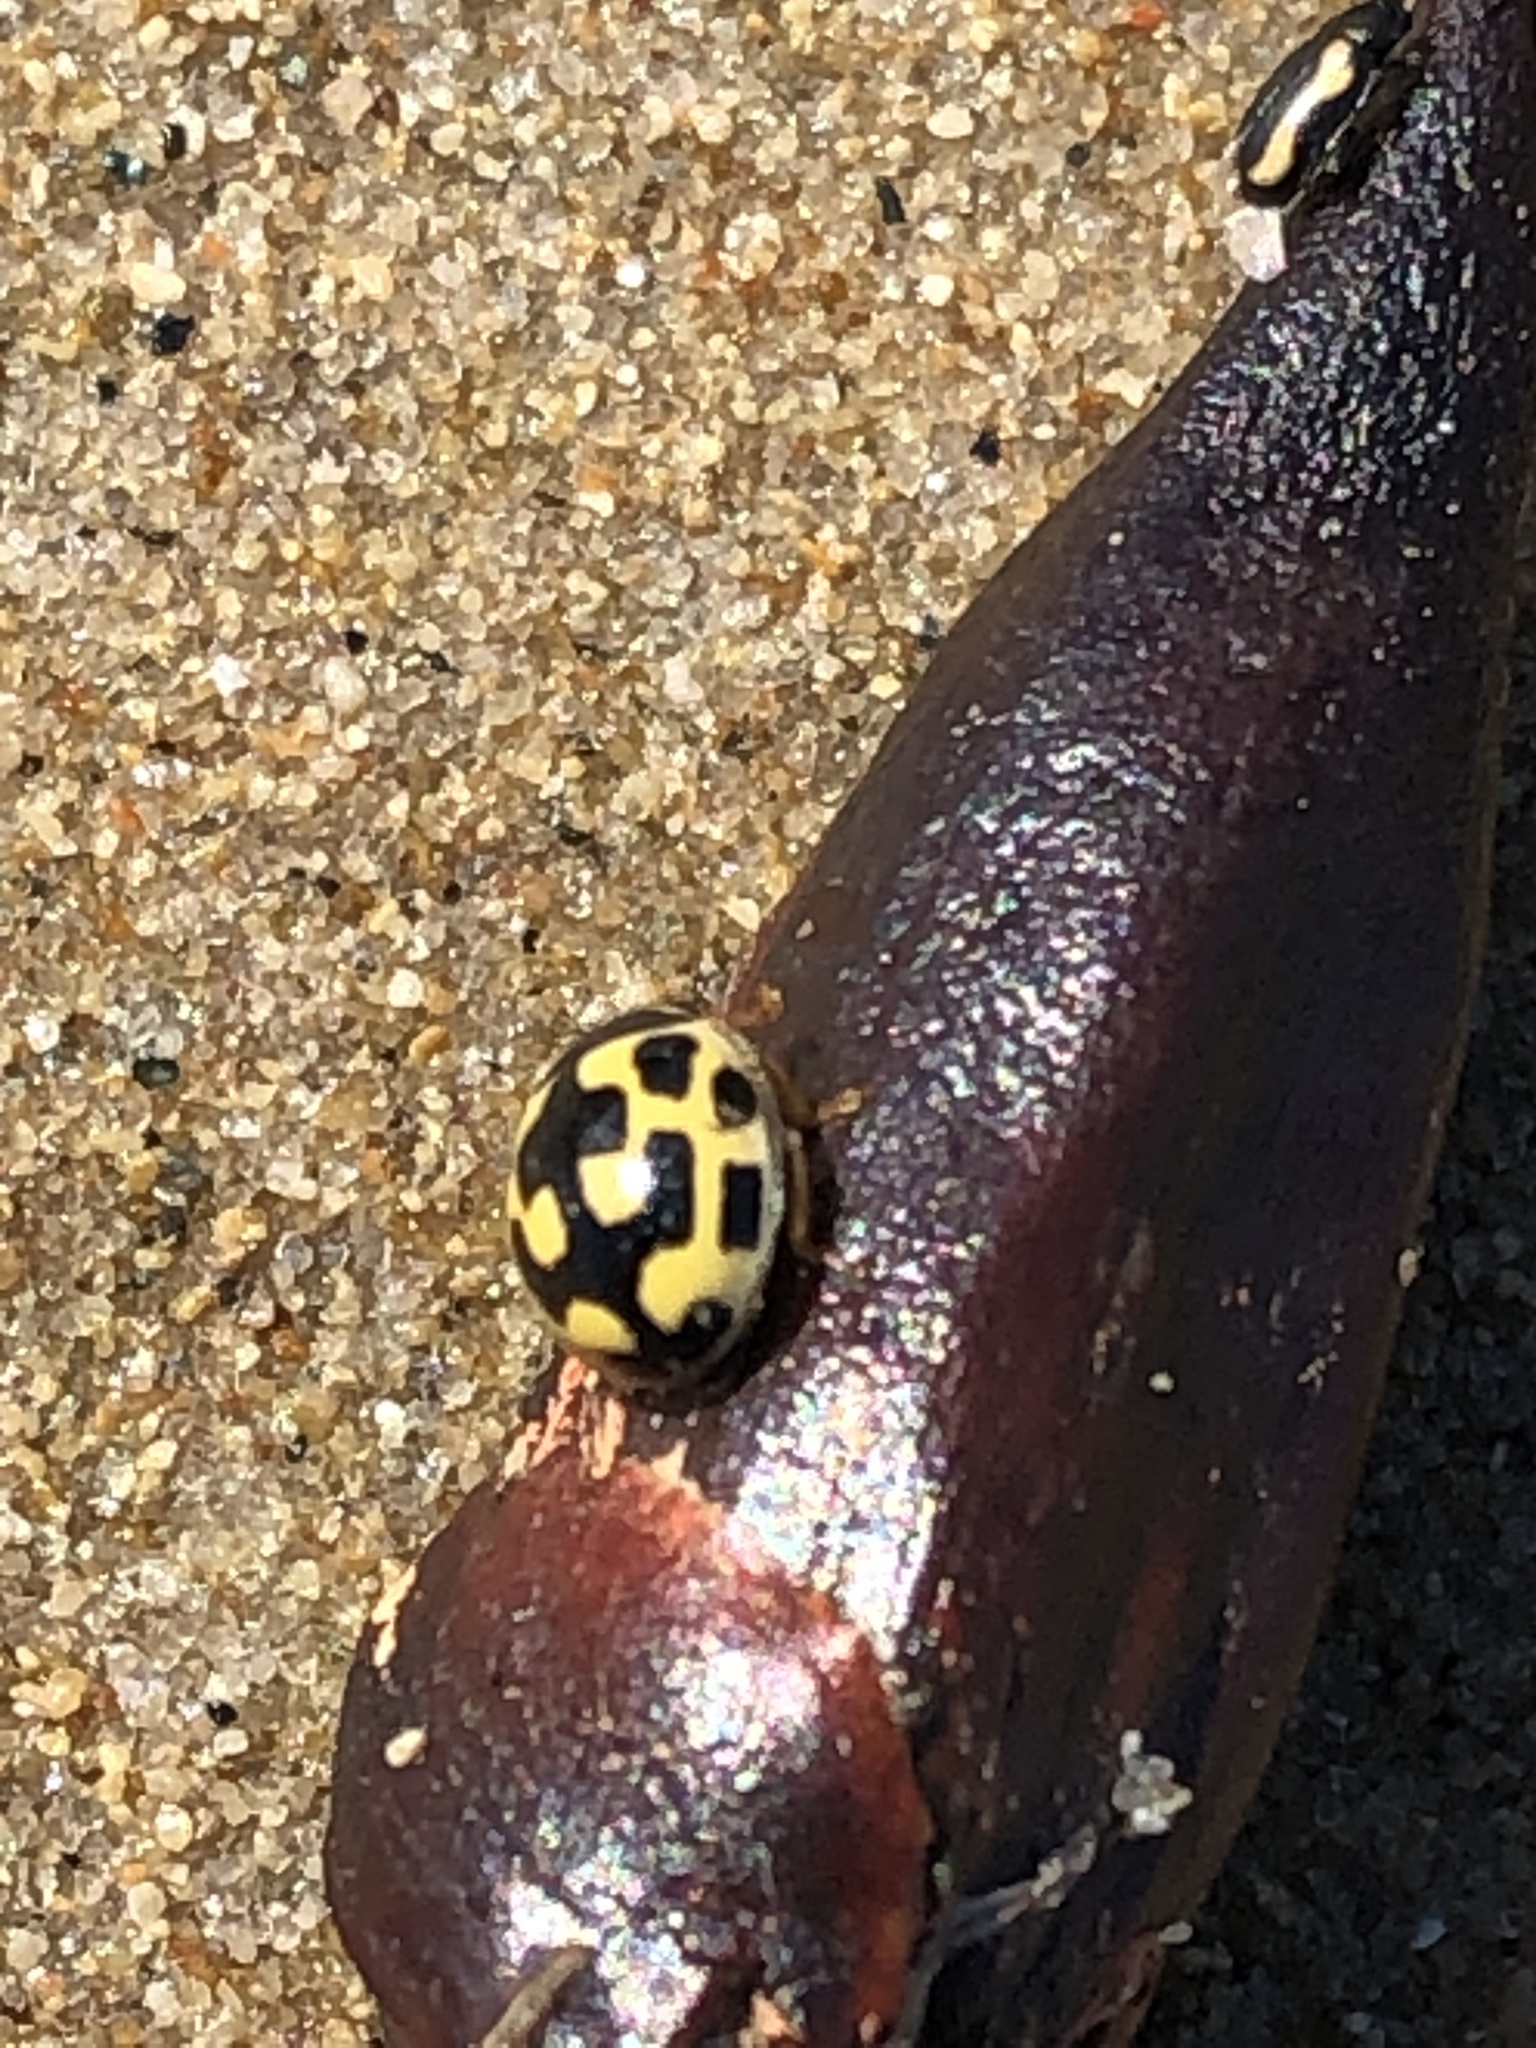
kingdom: Animalia
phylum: Arthropoda
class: Insecta
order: Coleoptera
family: Coccinellidae
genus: Propylaea
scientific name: Propylaea quatuordecimpunctata
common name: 14-spotted ladybird beetle
